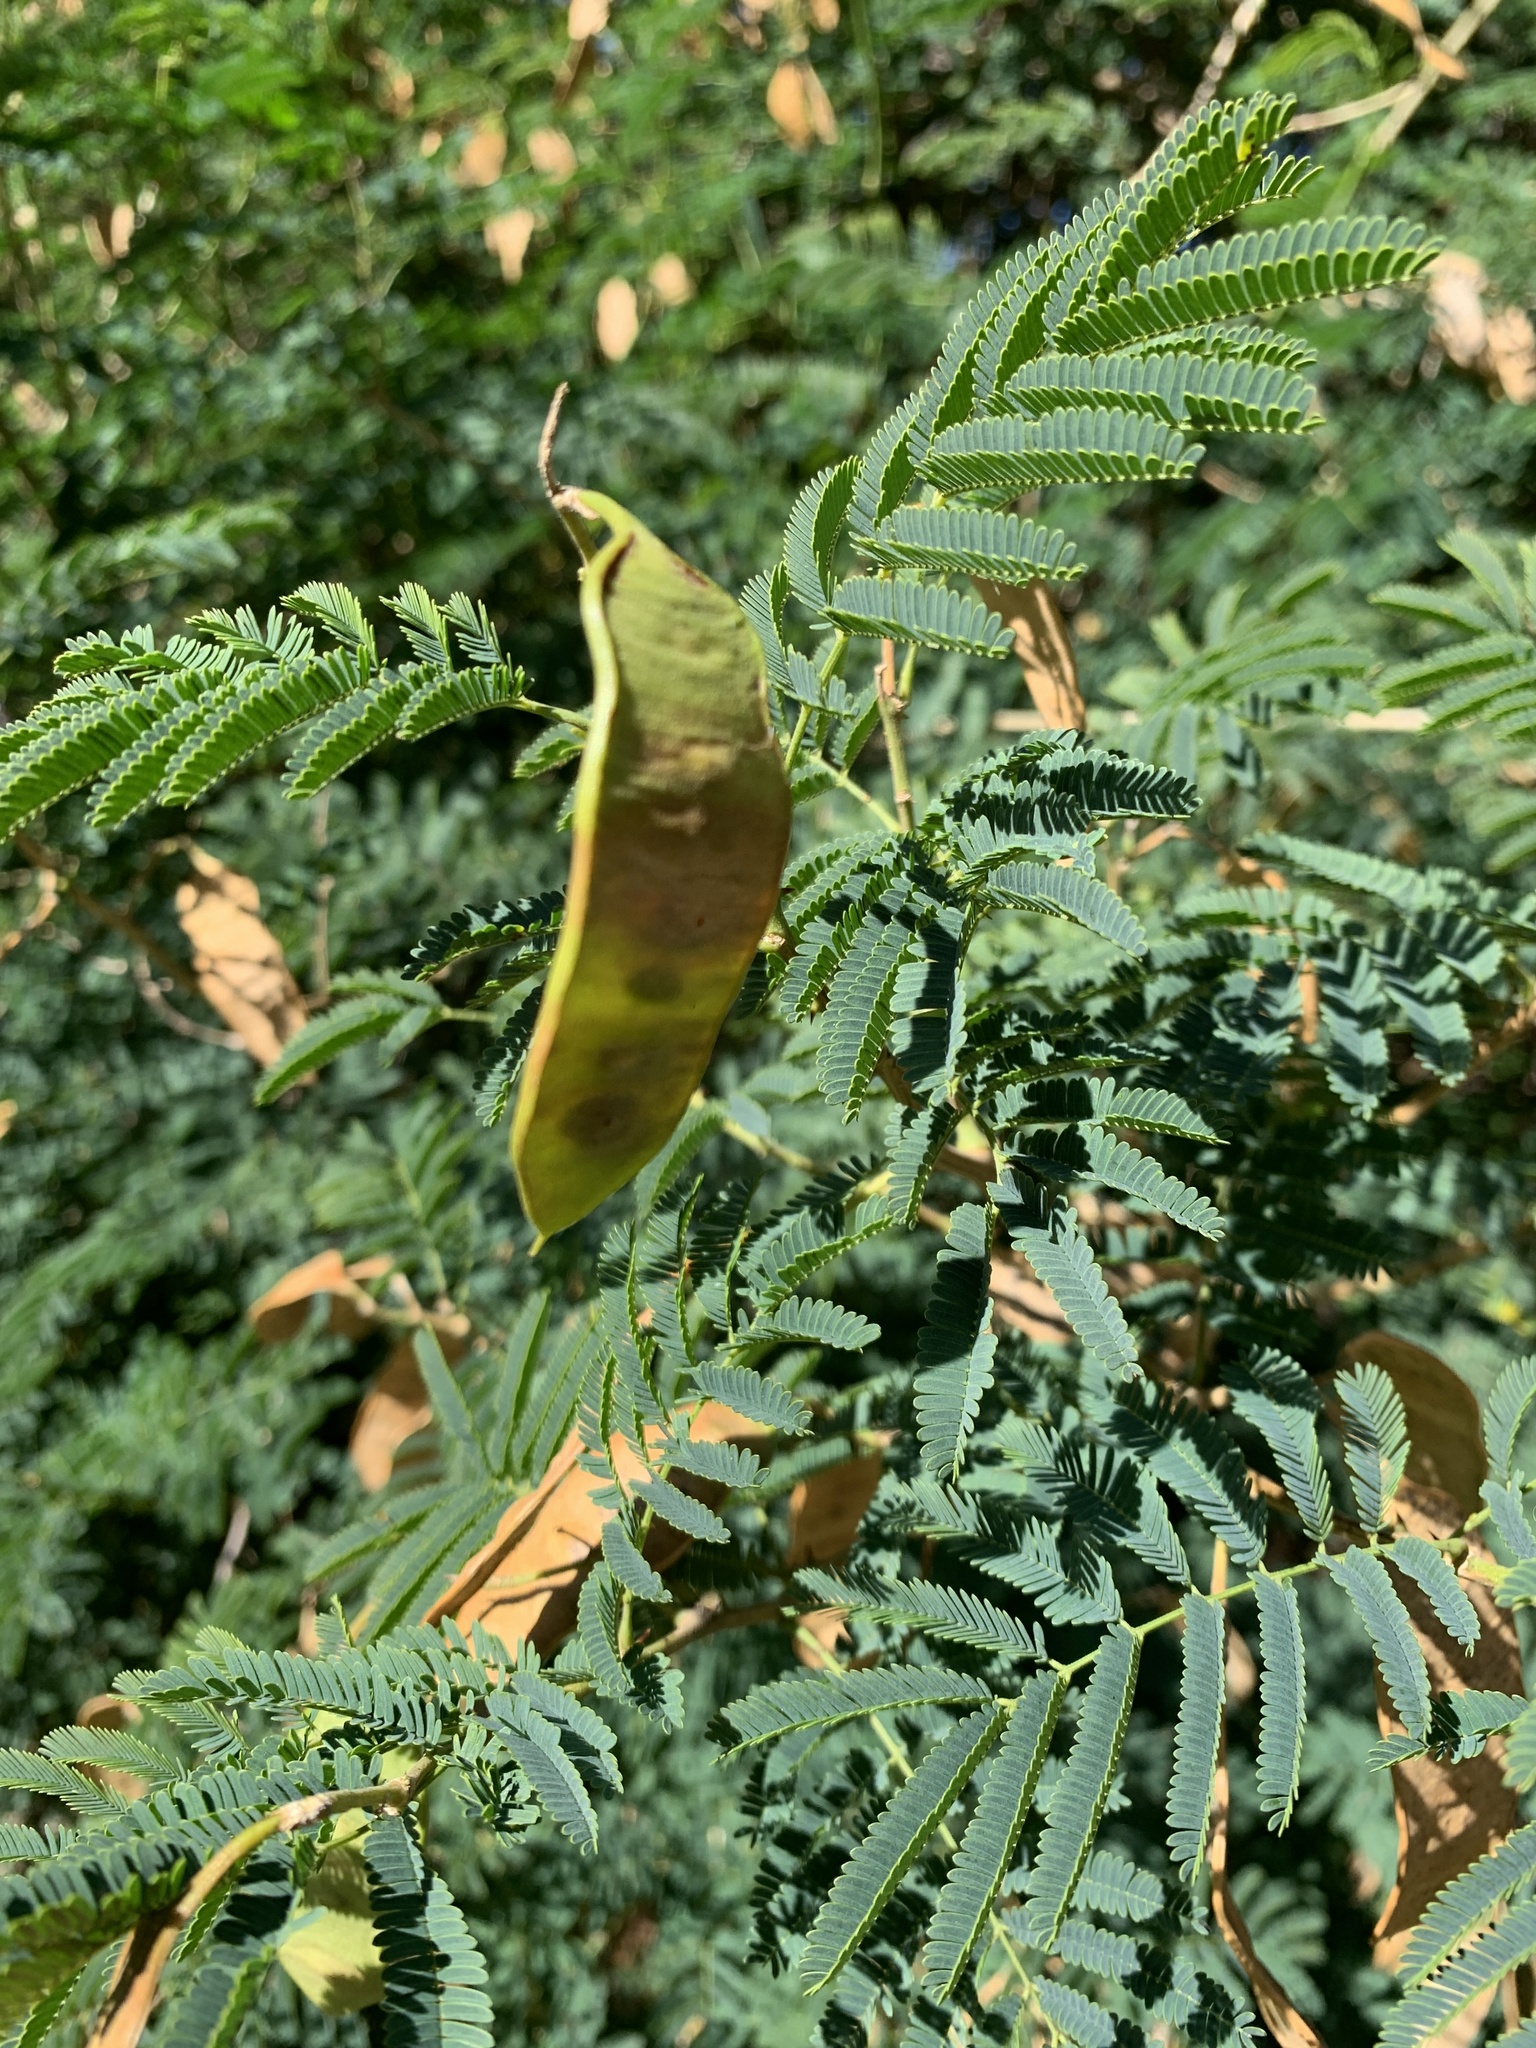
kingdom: Plantae
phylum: Tracheophyta
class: Magnoliopsida
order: Fabales
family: Fabaceae
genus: Senegalia
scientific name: Senegalia bonariensis
